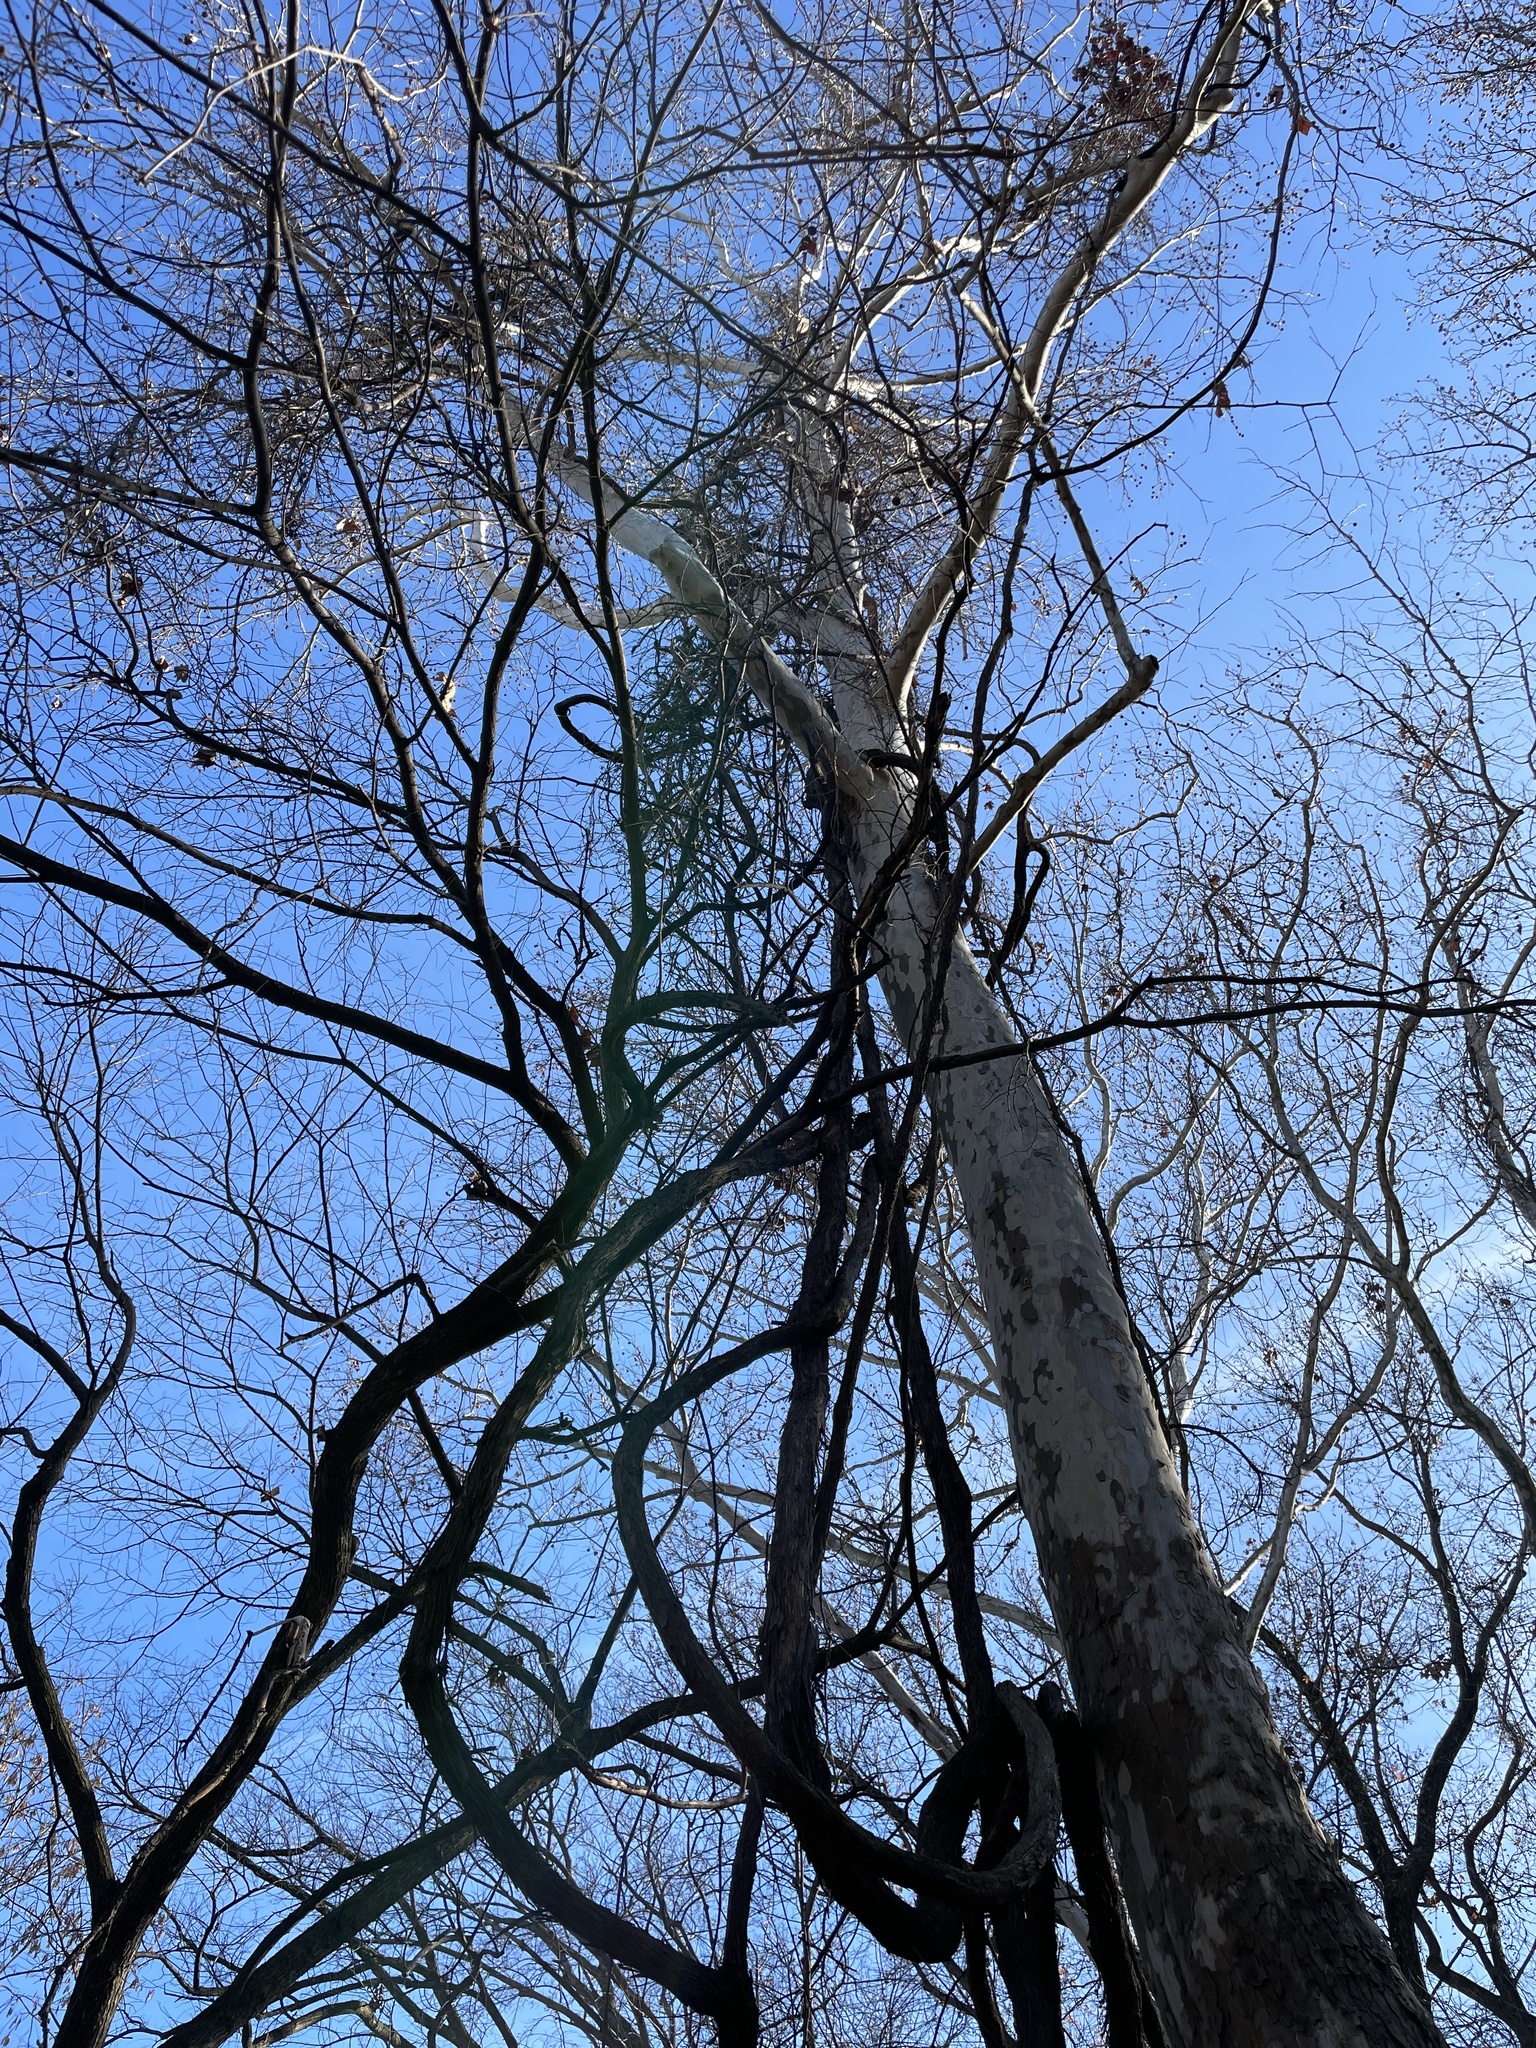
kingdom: Plantae
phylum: Tracheophyta
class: Magnoliopsida
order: Proteales
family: Platanaceae
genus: Platanus
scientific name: Platanus occidentalis
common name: American sycamore
